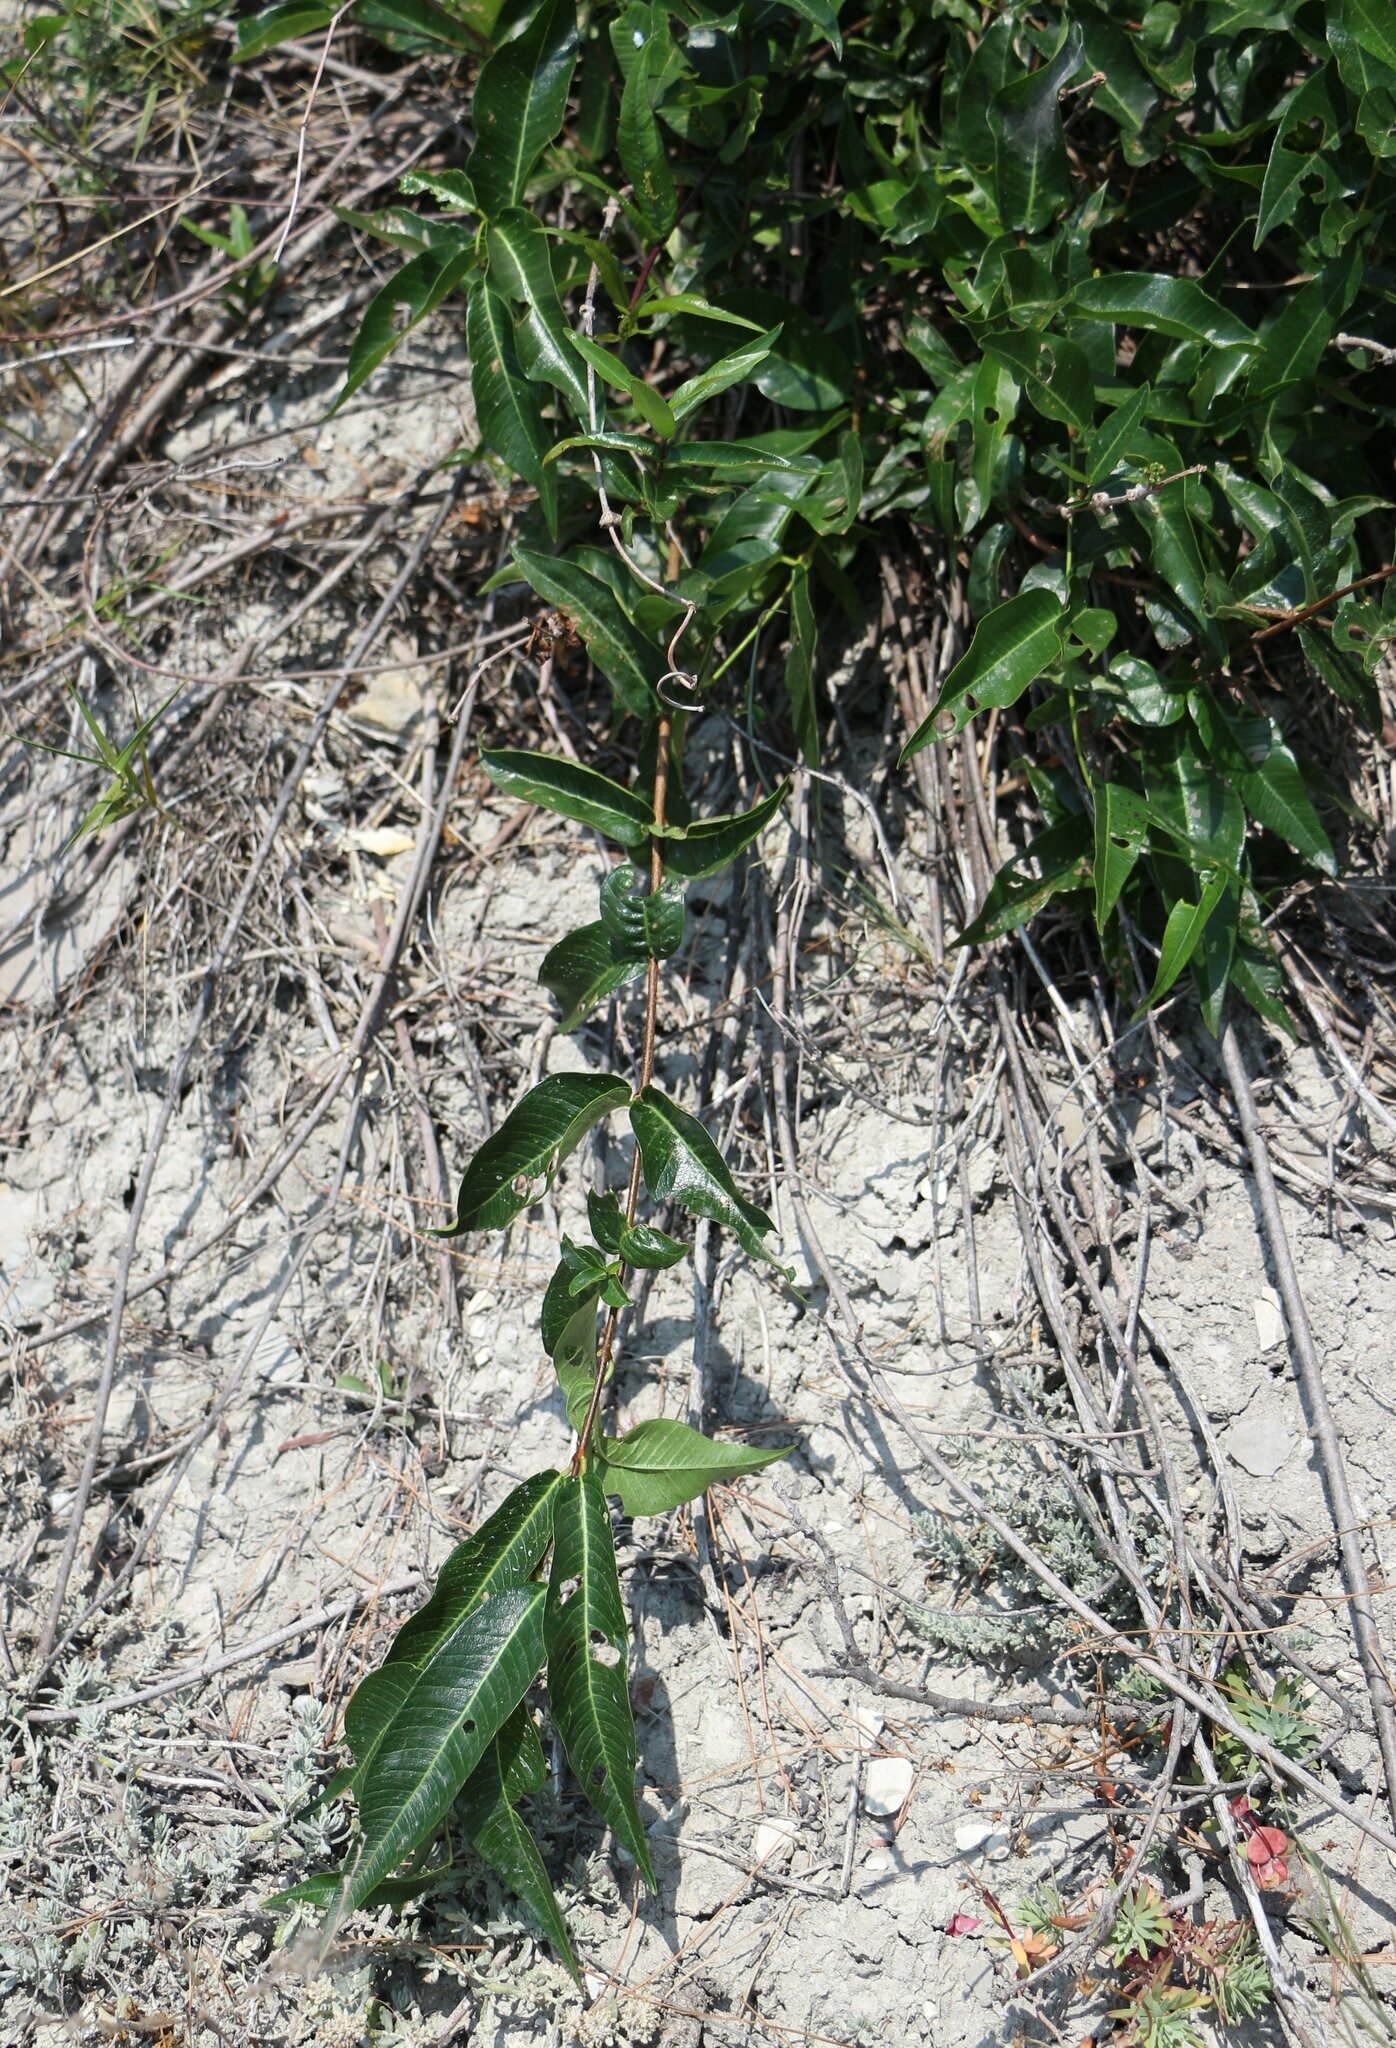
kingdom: Plantae
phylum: Tracheophyta
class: Magnoliopsida
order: Gentianales
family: Apocynaceae
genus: Periploca
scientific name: Periploca graeca
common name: Silkvine
